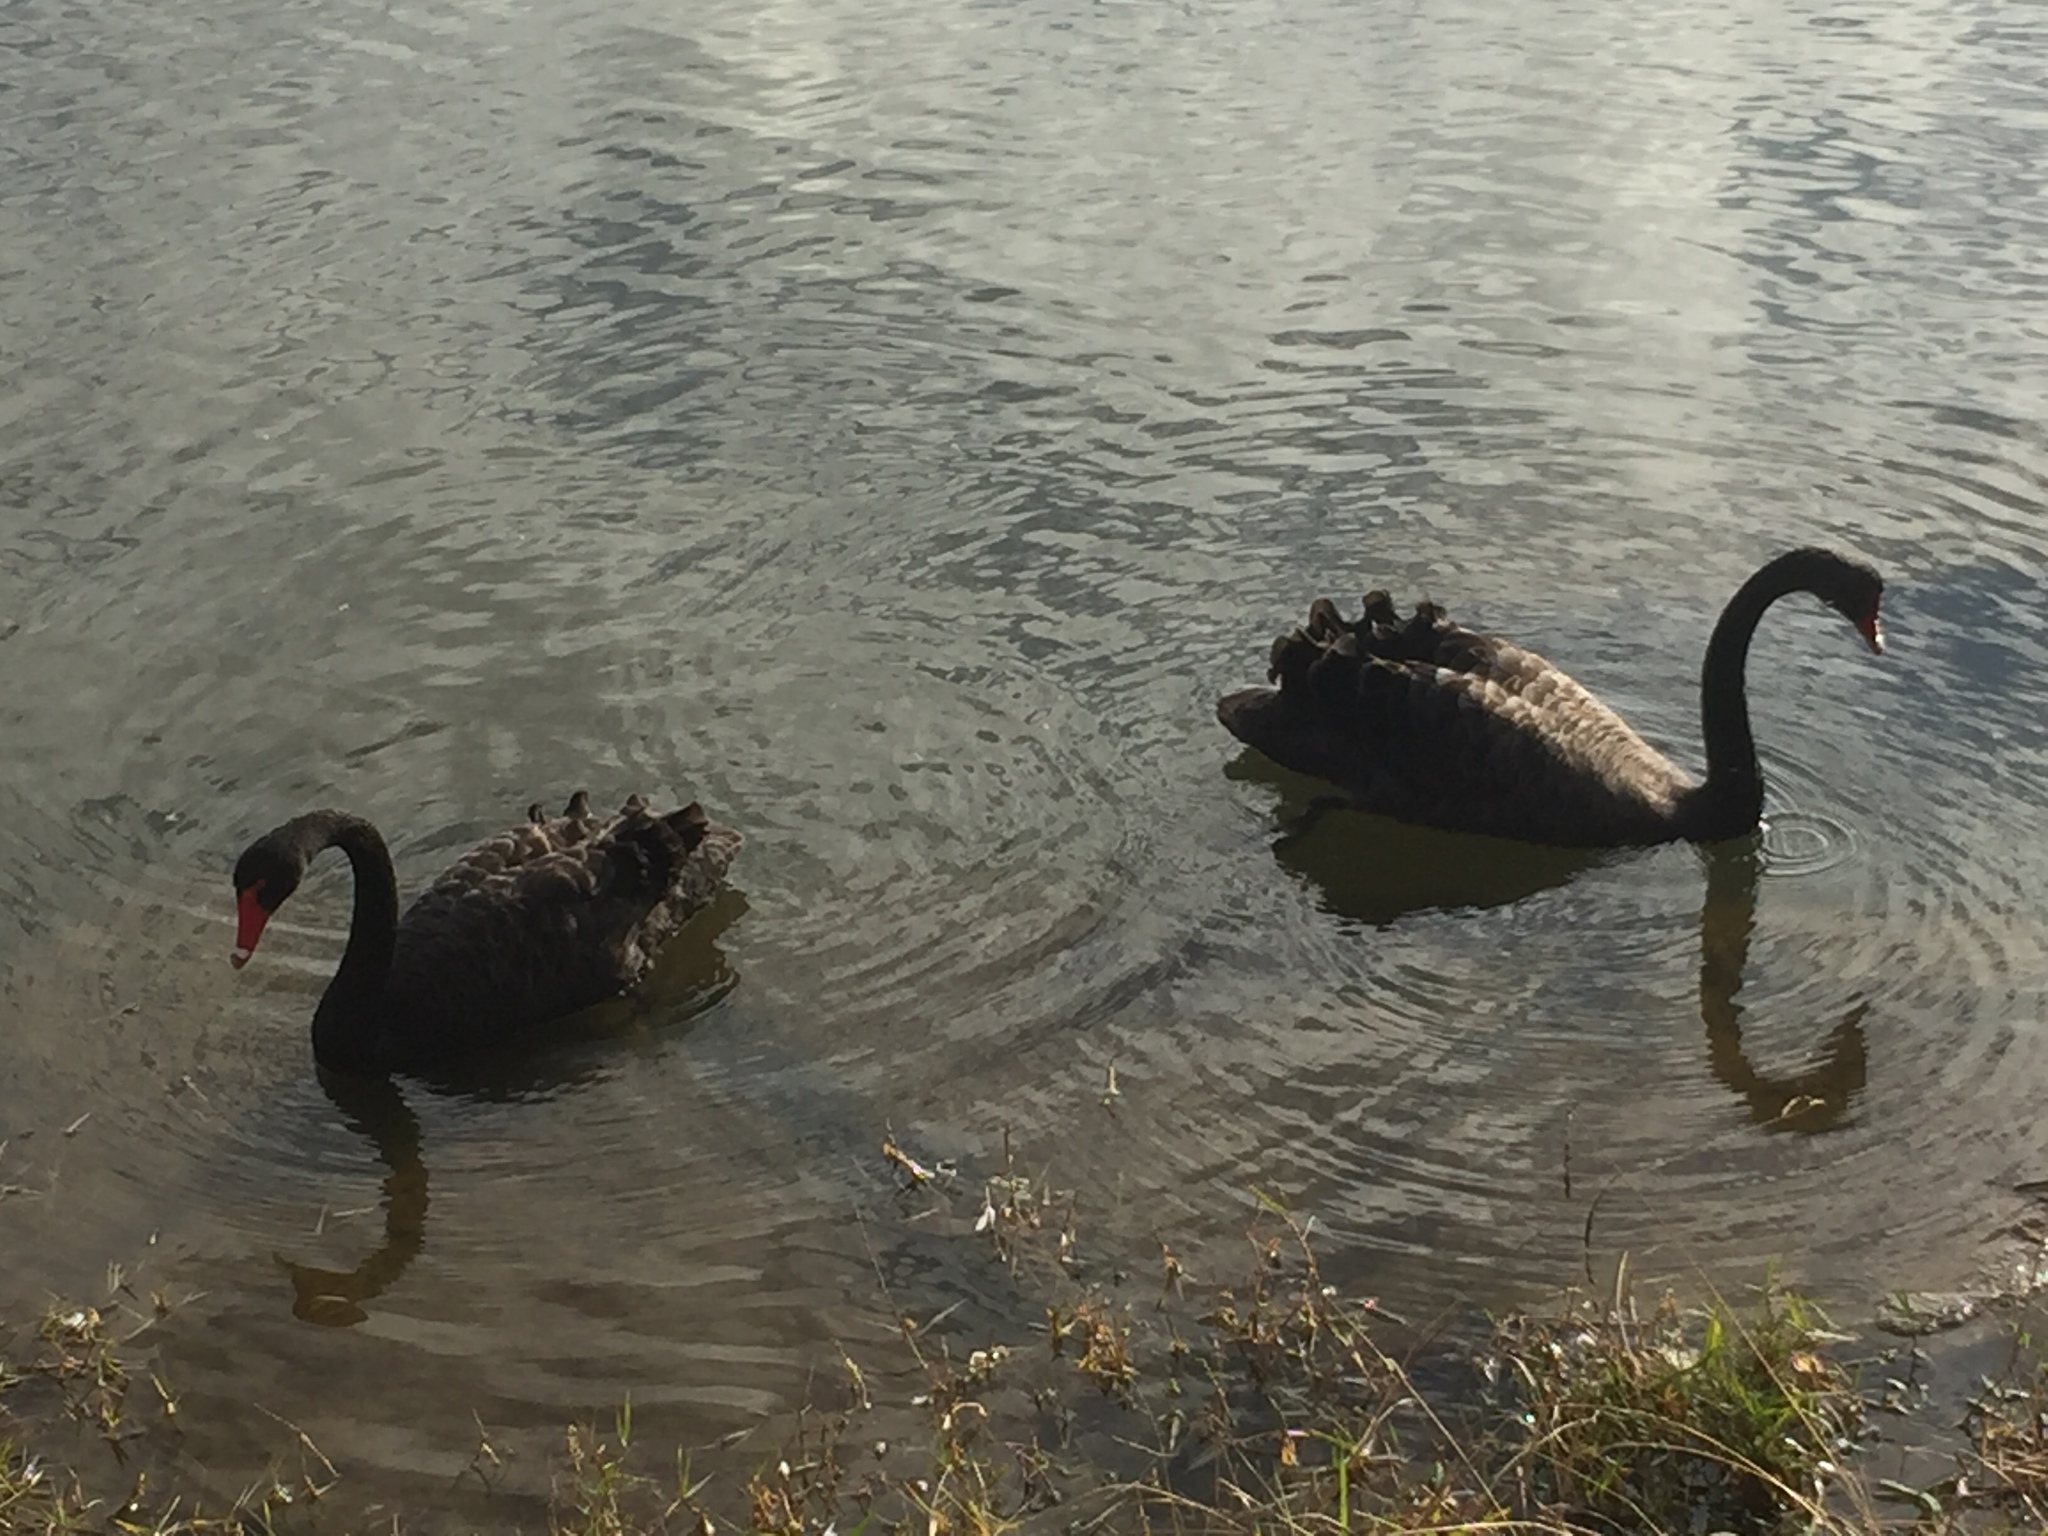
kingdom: Animalia
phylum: Chordata
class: Aves
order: Anseriformes
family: Anatidae
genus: Cygnus
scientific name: Cygnus atratus
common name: Black swan
